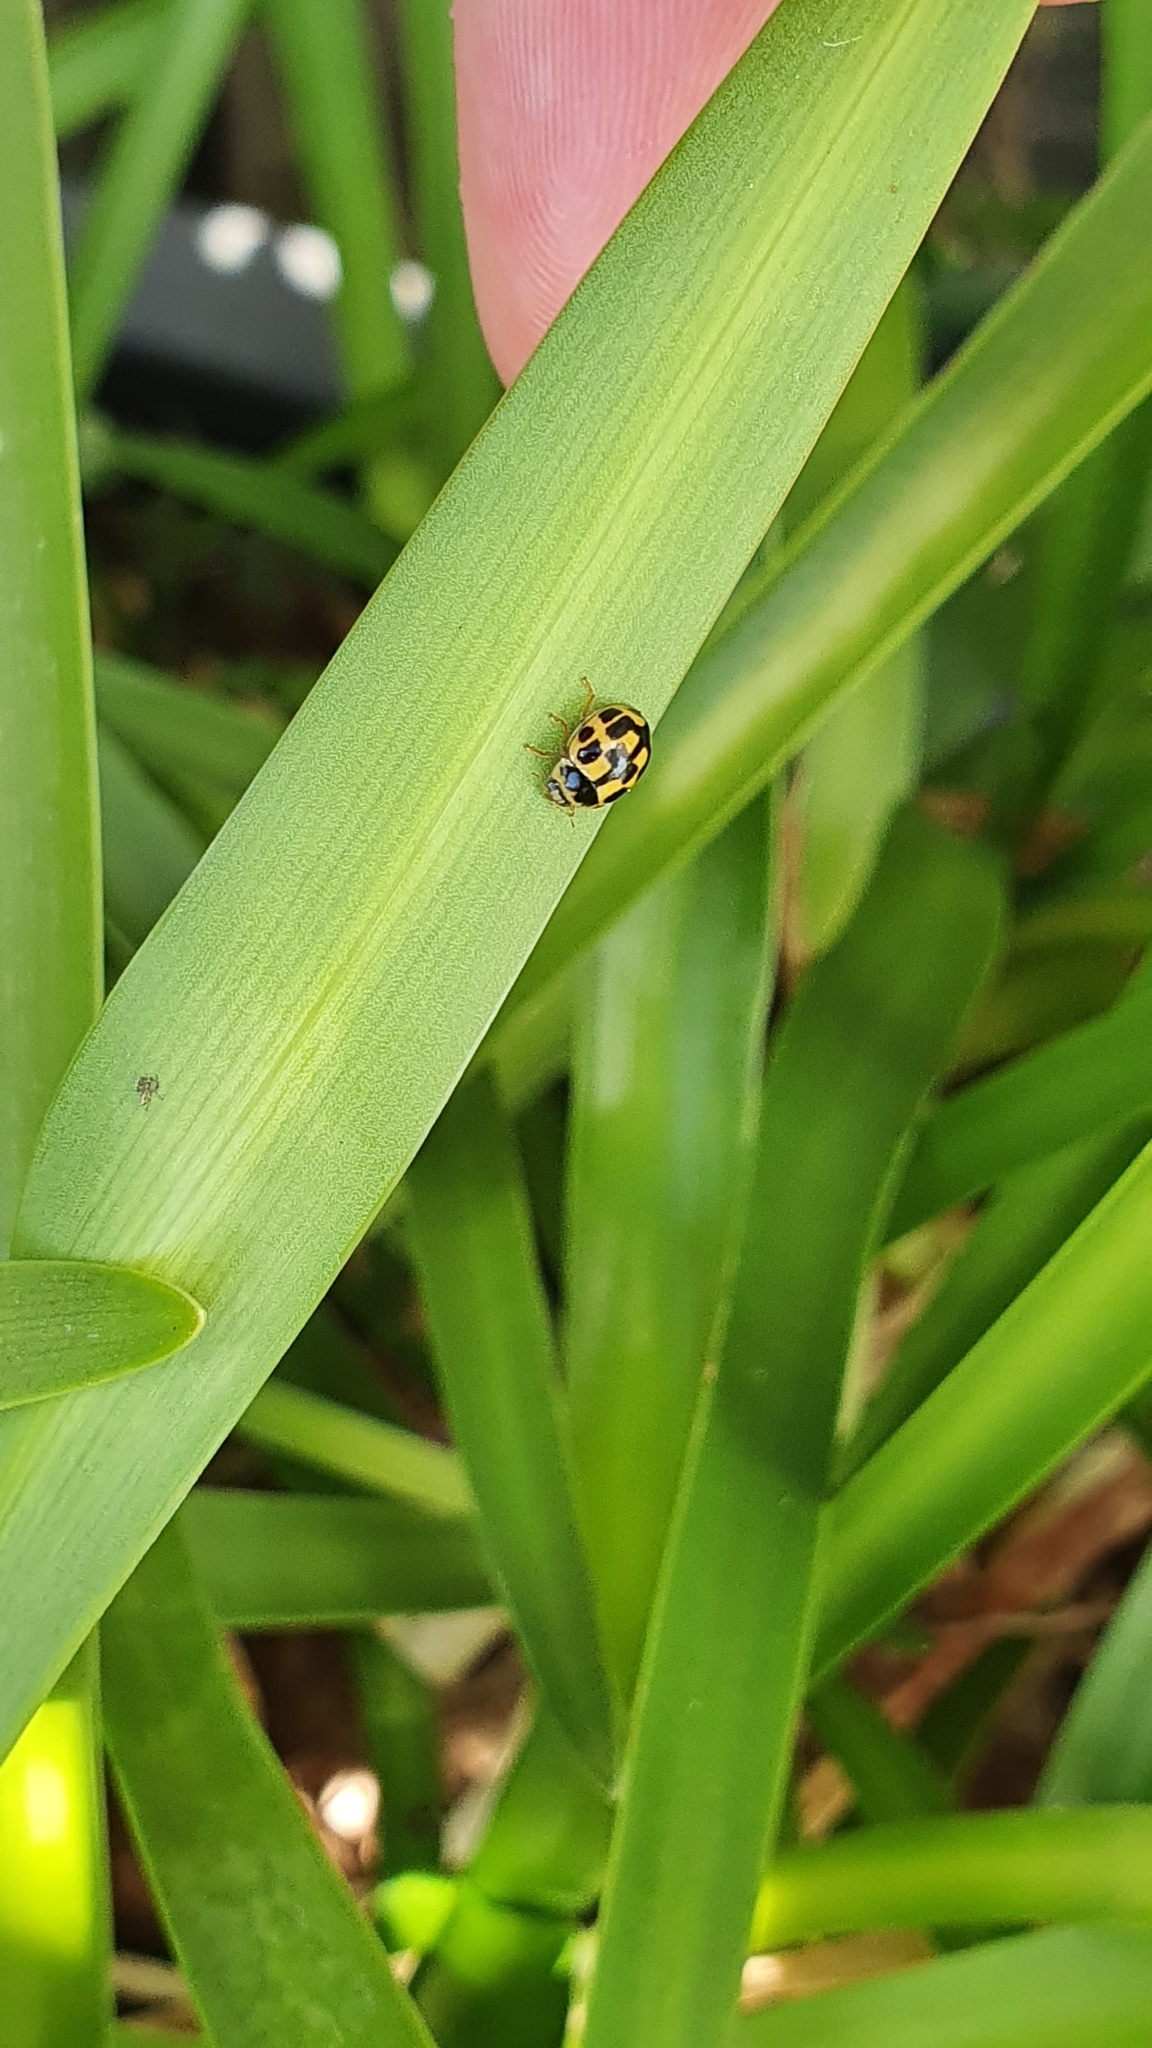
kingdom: Animalia
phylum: Arthropoda
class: Insecta
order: Coleoptera
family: Coccinellidae
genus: Propylaea
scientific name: Propylaea quatuordecimpunctata
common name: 14-spotted ladybird beetle
